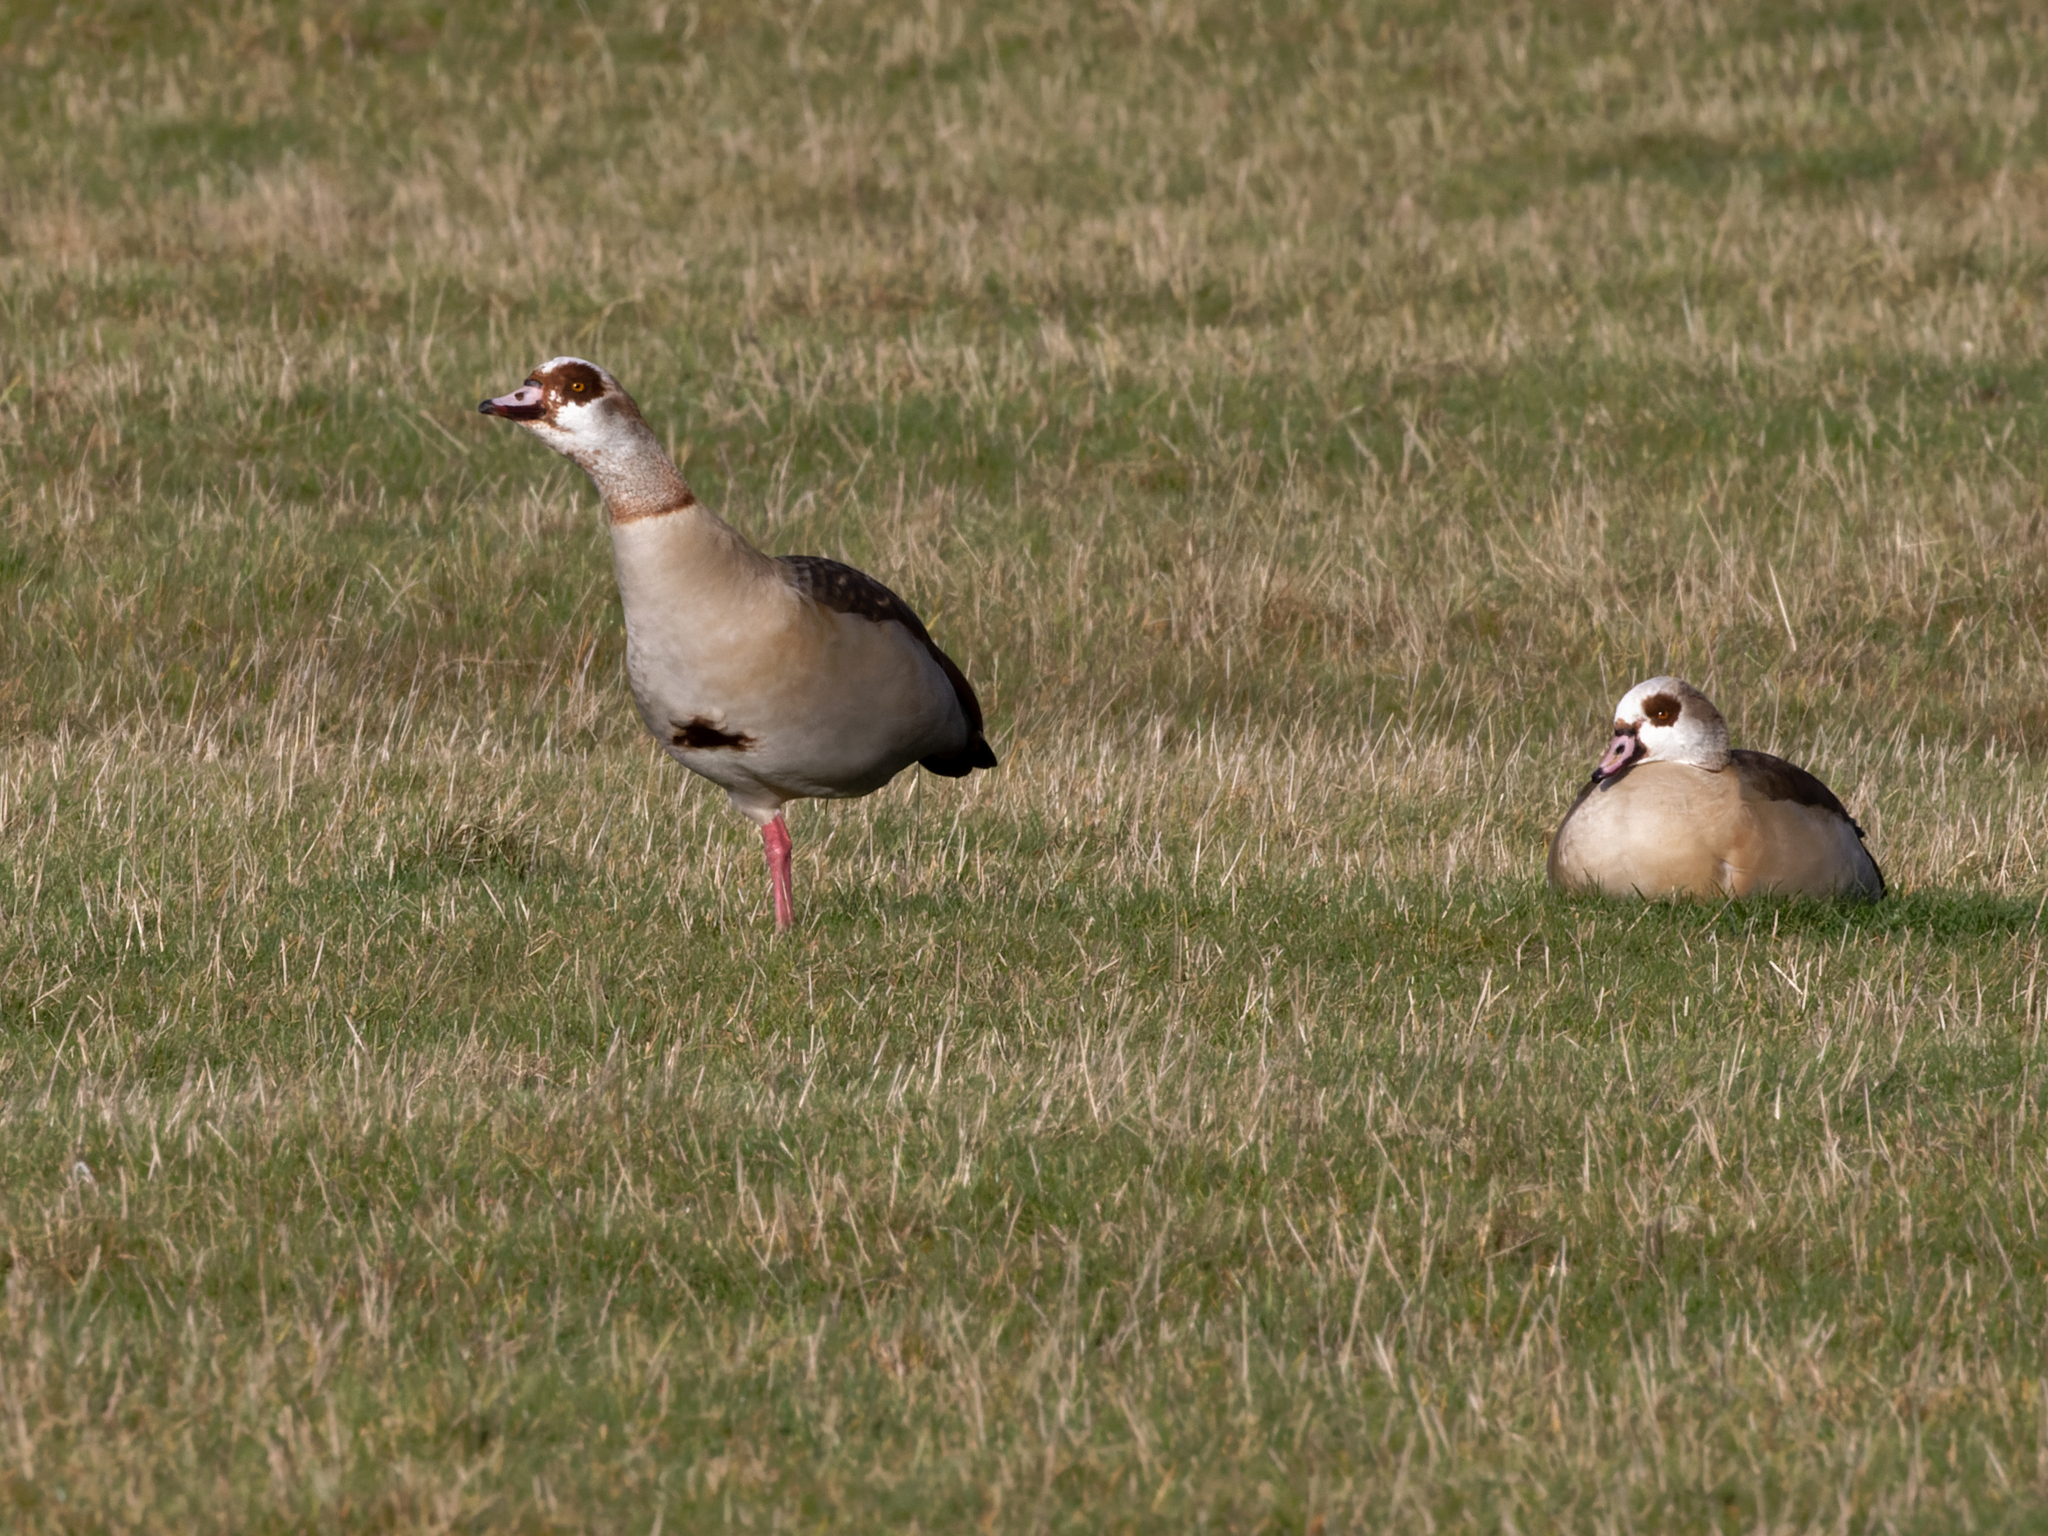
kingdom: Animalia
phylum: Chordata
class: Aves
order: Anseriformes
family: Anatidae
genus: Alopochen
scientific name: Alopochen aegyptiaca
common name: Egyptian goose
